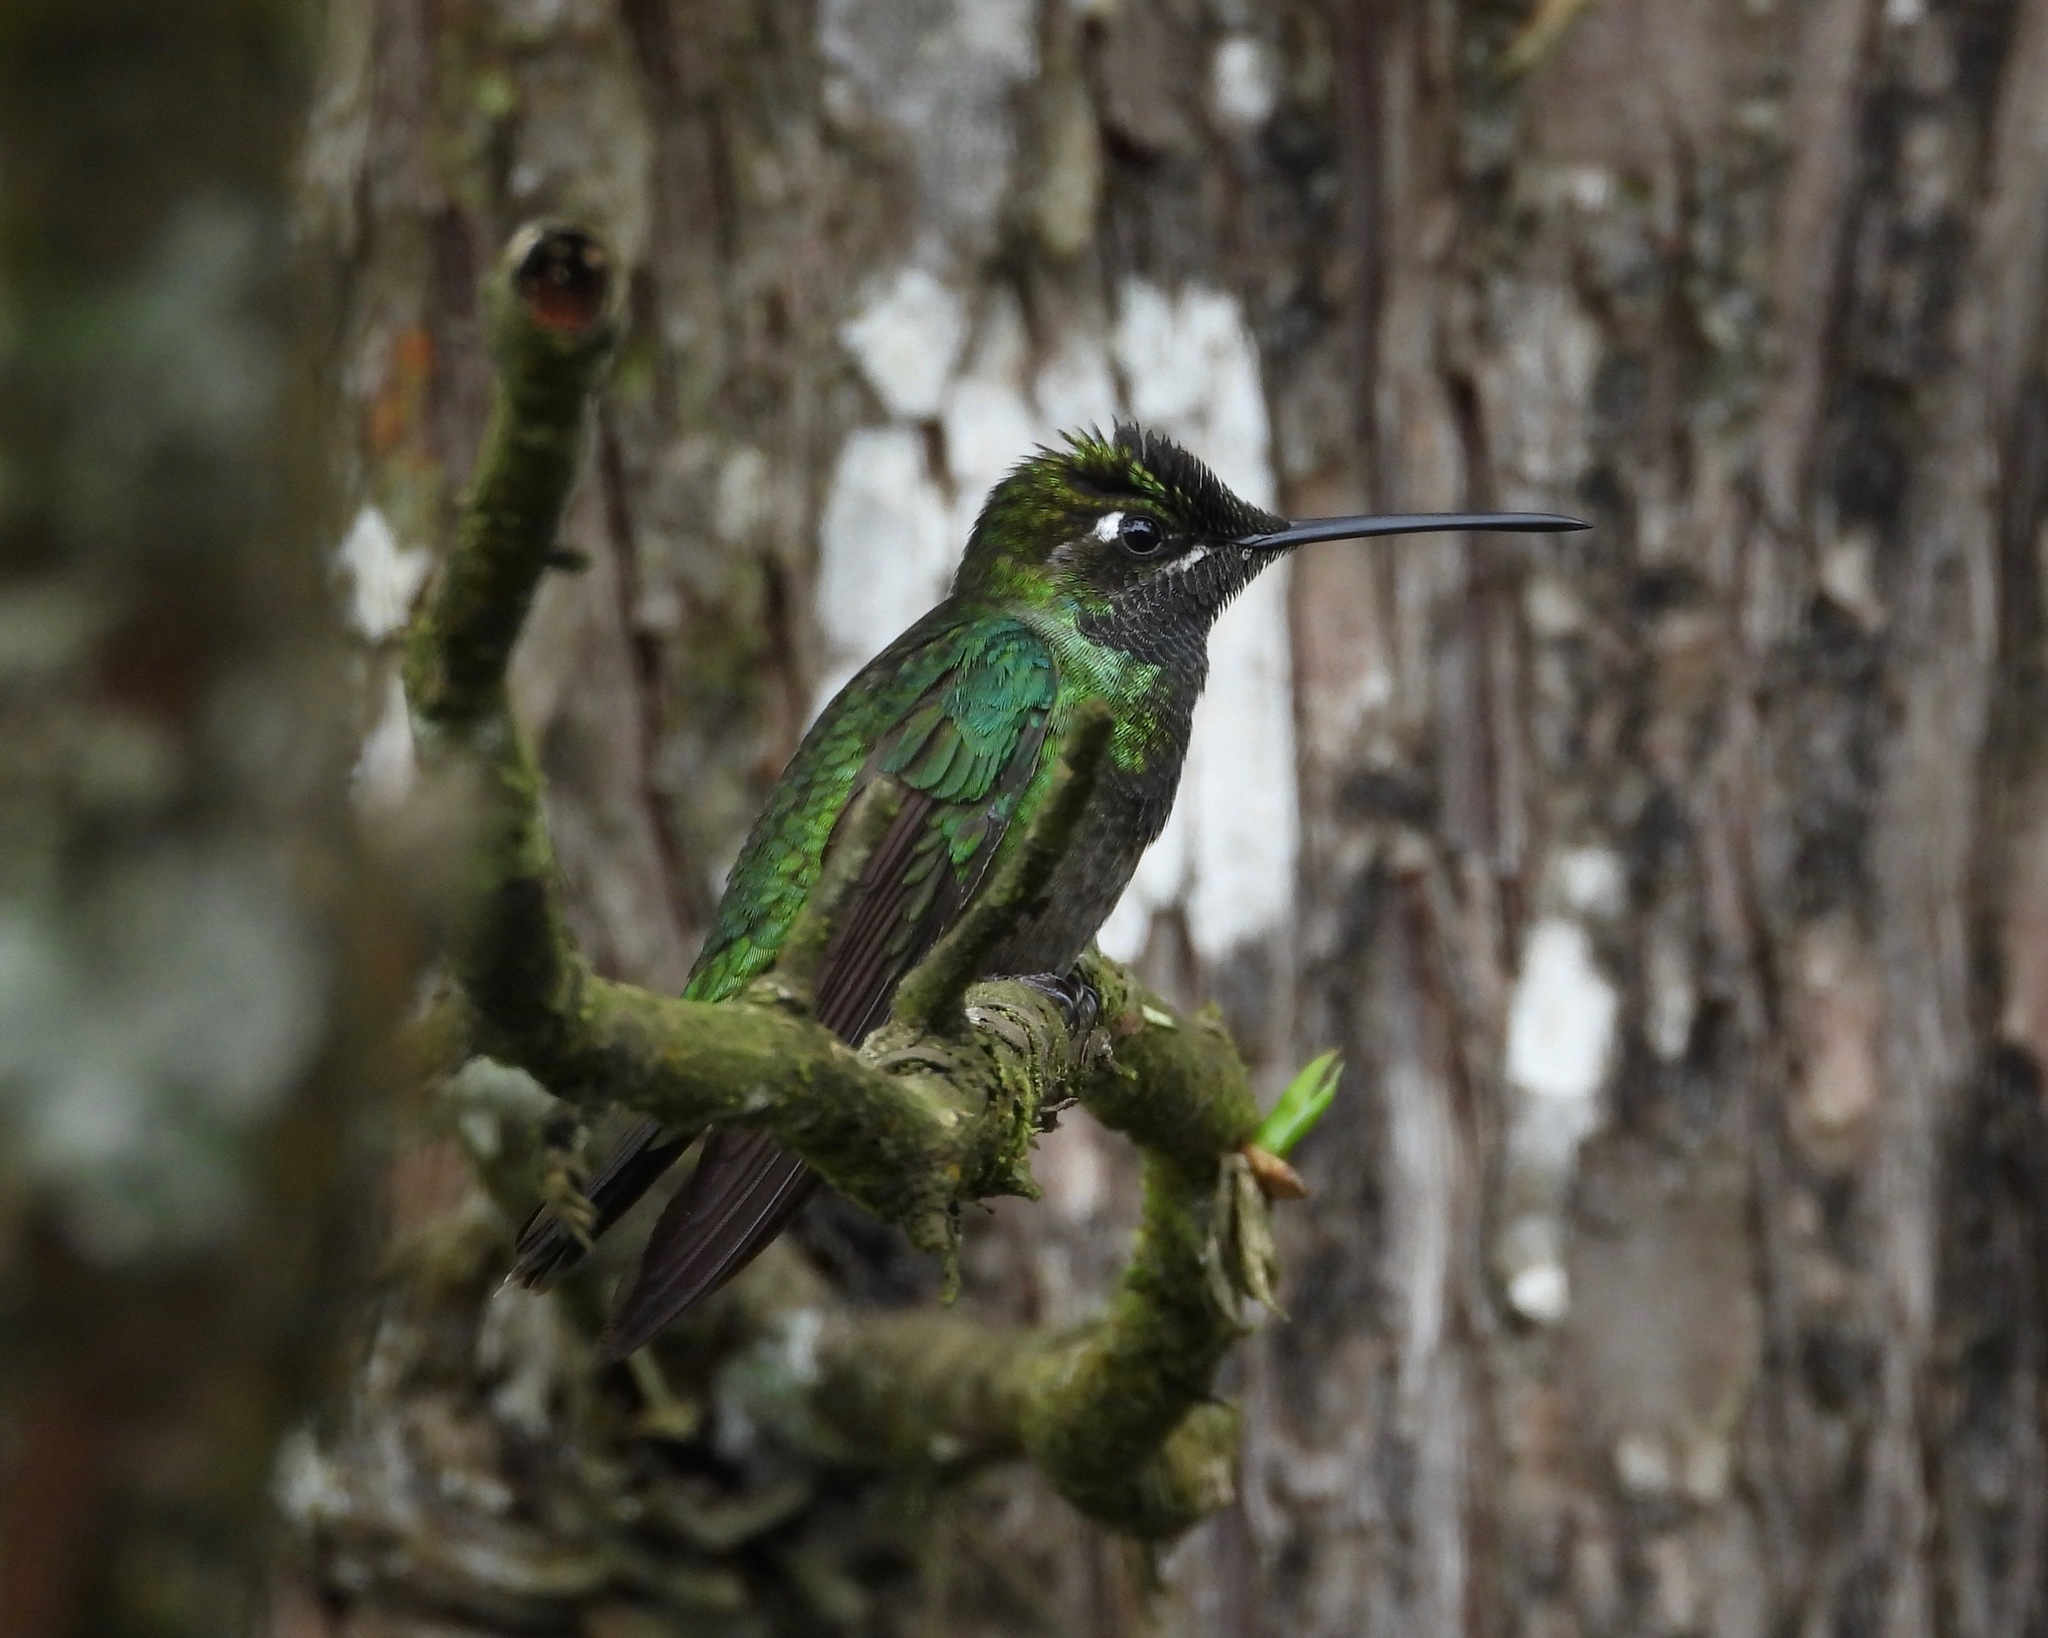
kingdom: Animalia
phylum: Chordata
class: Aves
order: Apodiformes
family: Trochilidae
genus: Eugenes
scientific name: Eugenes fulgens
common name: Magnificent hummingbird
